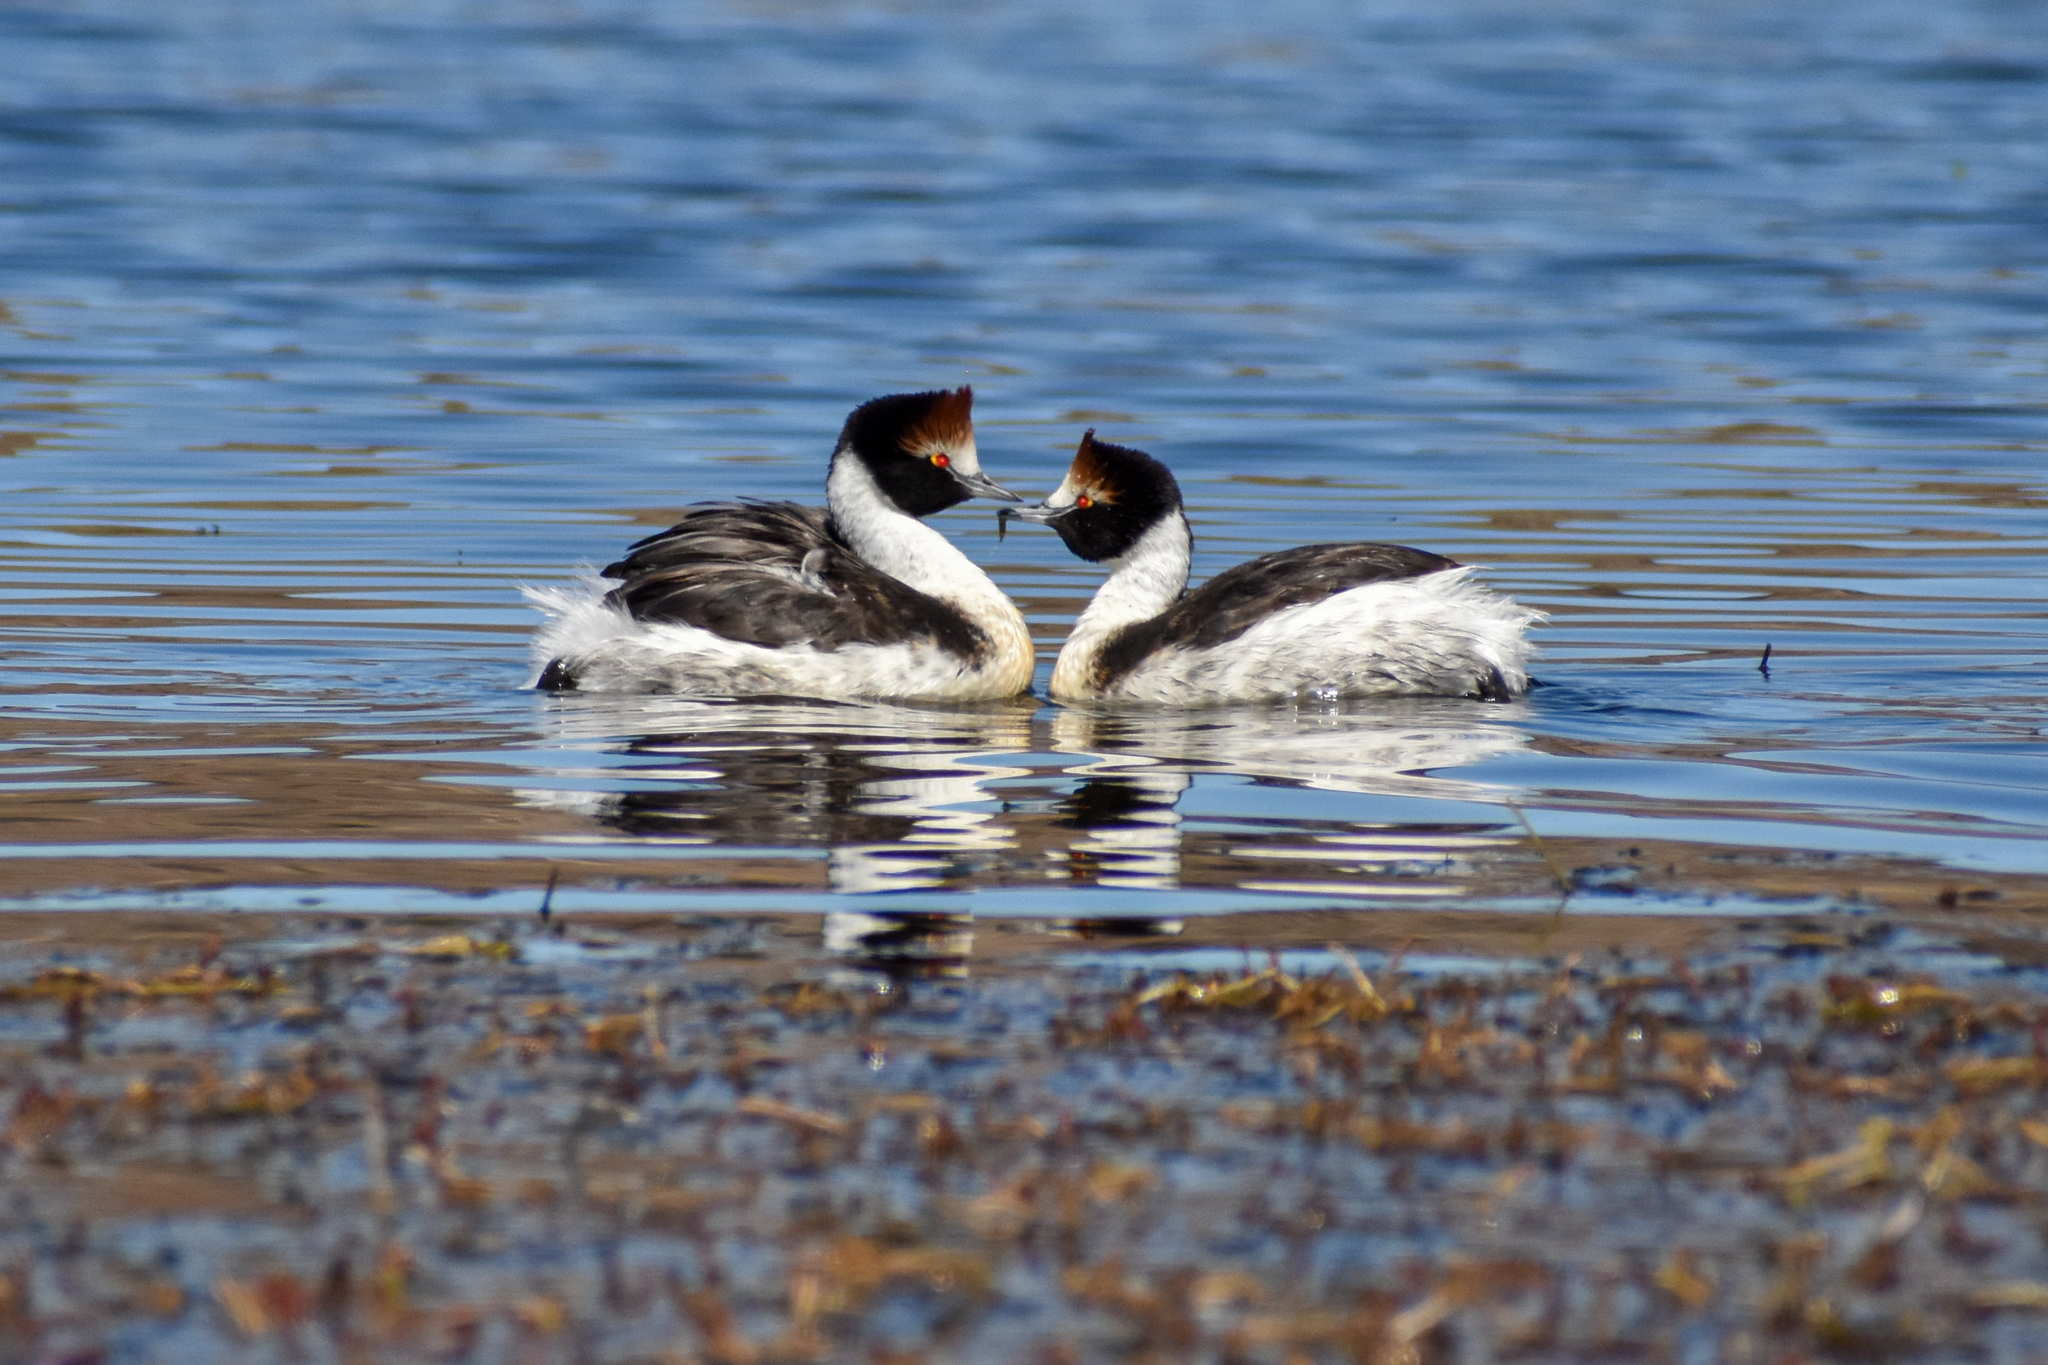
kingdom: Animalia
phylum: Chordata
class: Aves
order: Podicipediformes
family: Podicipedidae
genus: Podiceps
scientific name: Podiceps gallardoi
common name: Hooded grebe
